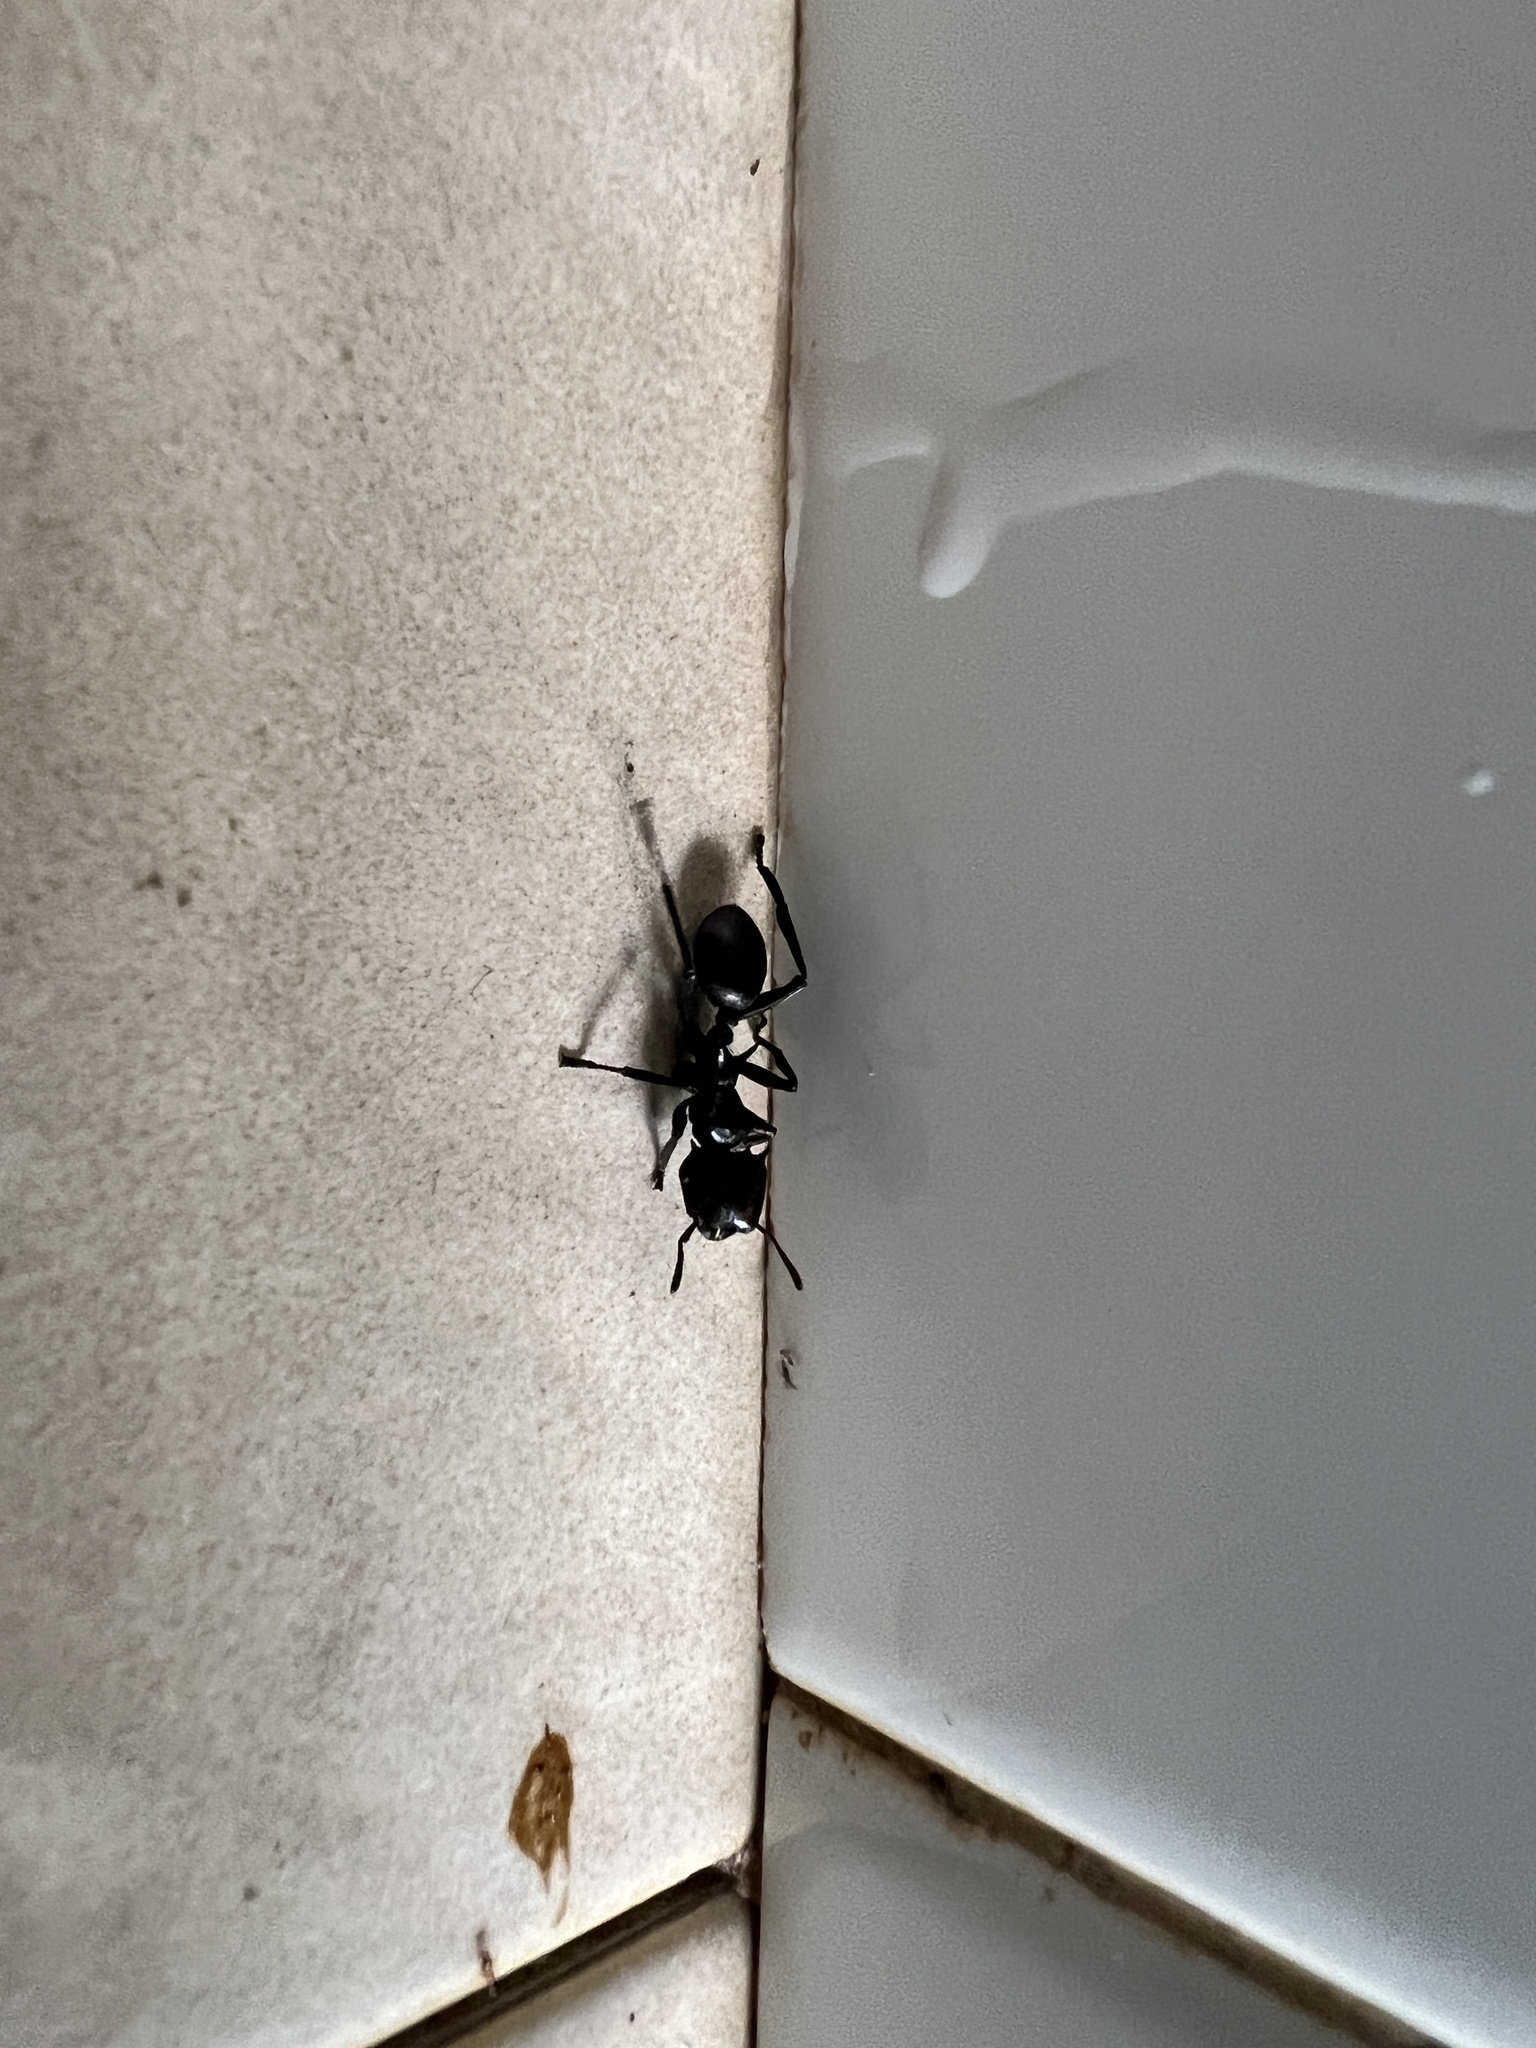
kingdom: Animalia
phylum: Arthropoda
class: Insecta
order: Hymenoptera
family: Formicidae
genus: Cephalotes
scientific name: Cephalotes atratus
